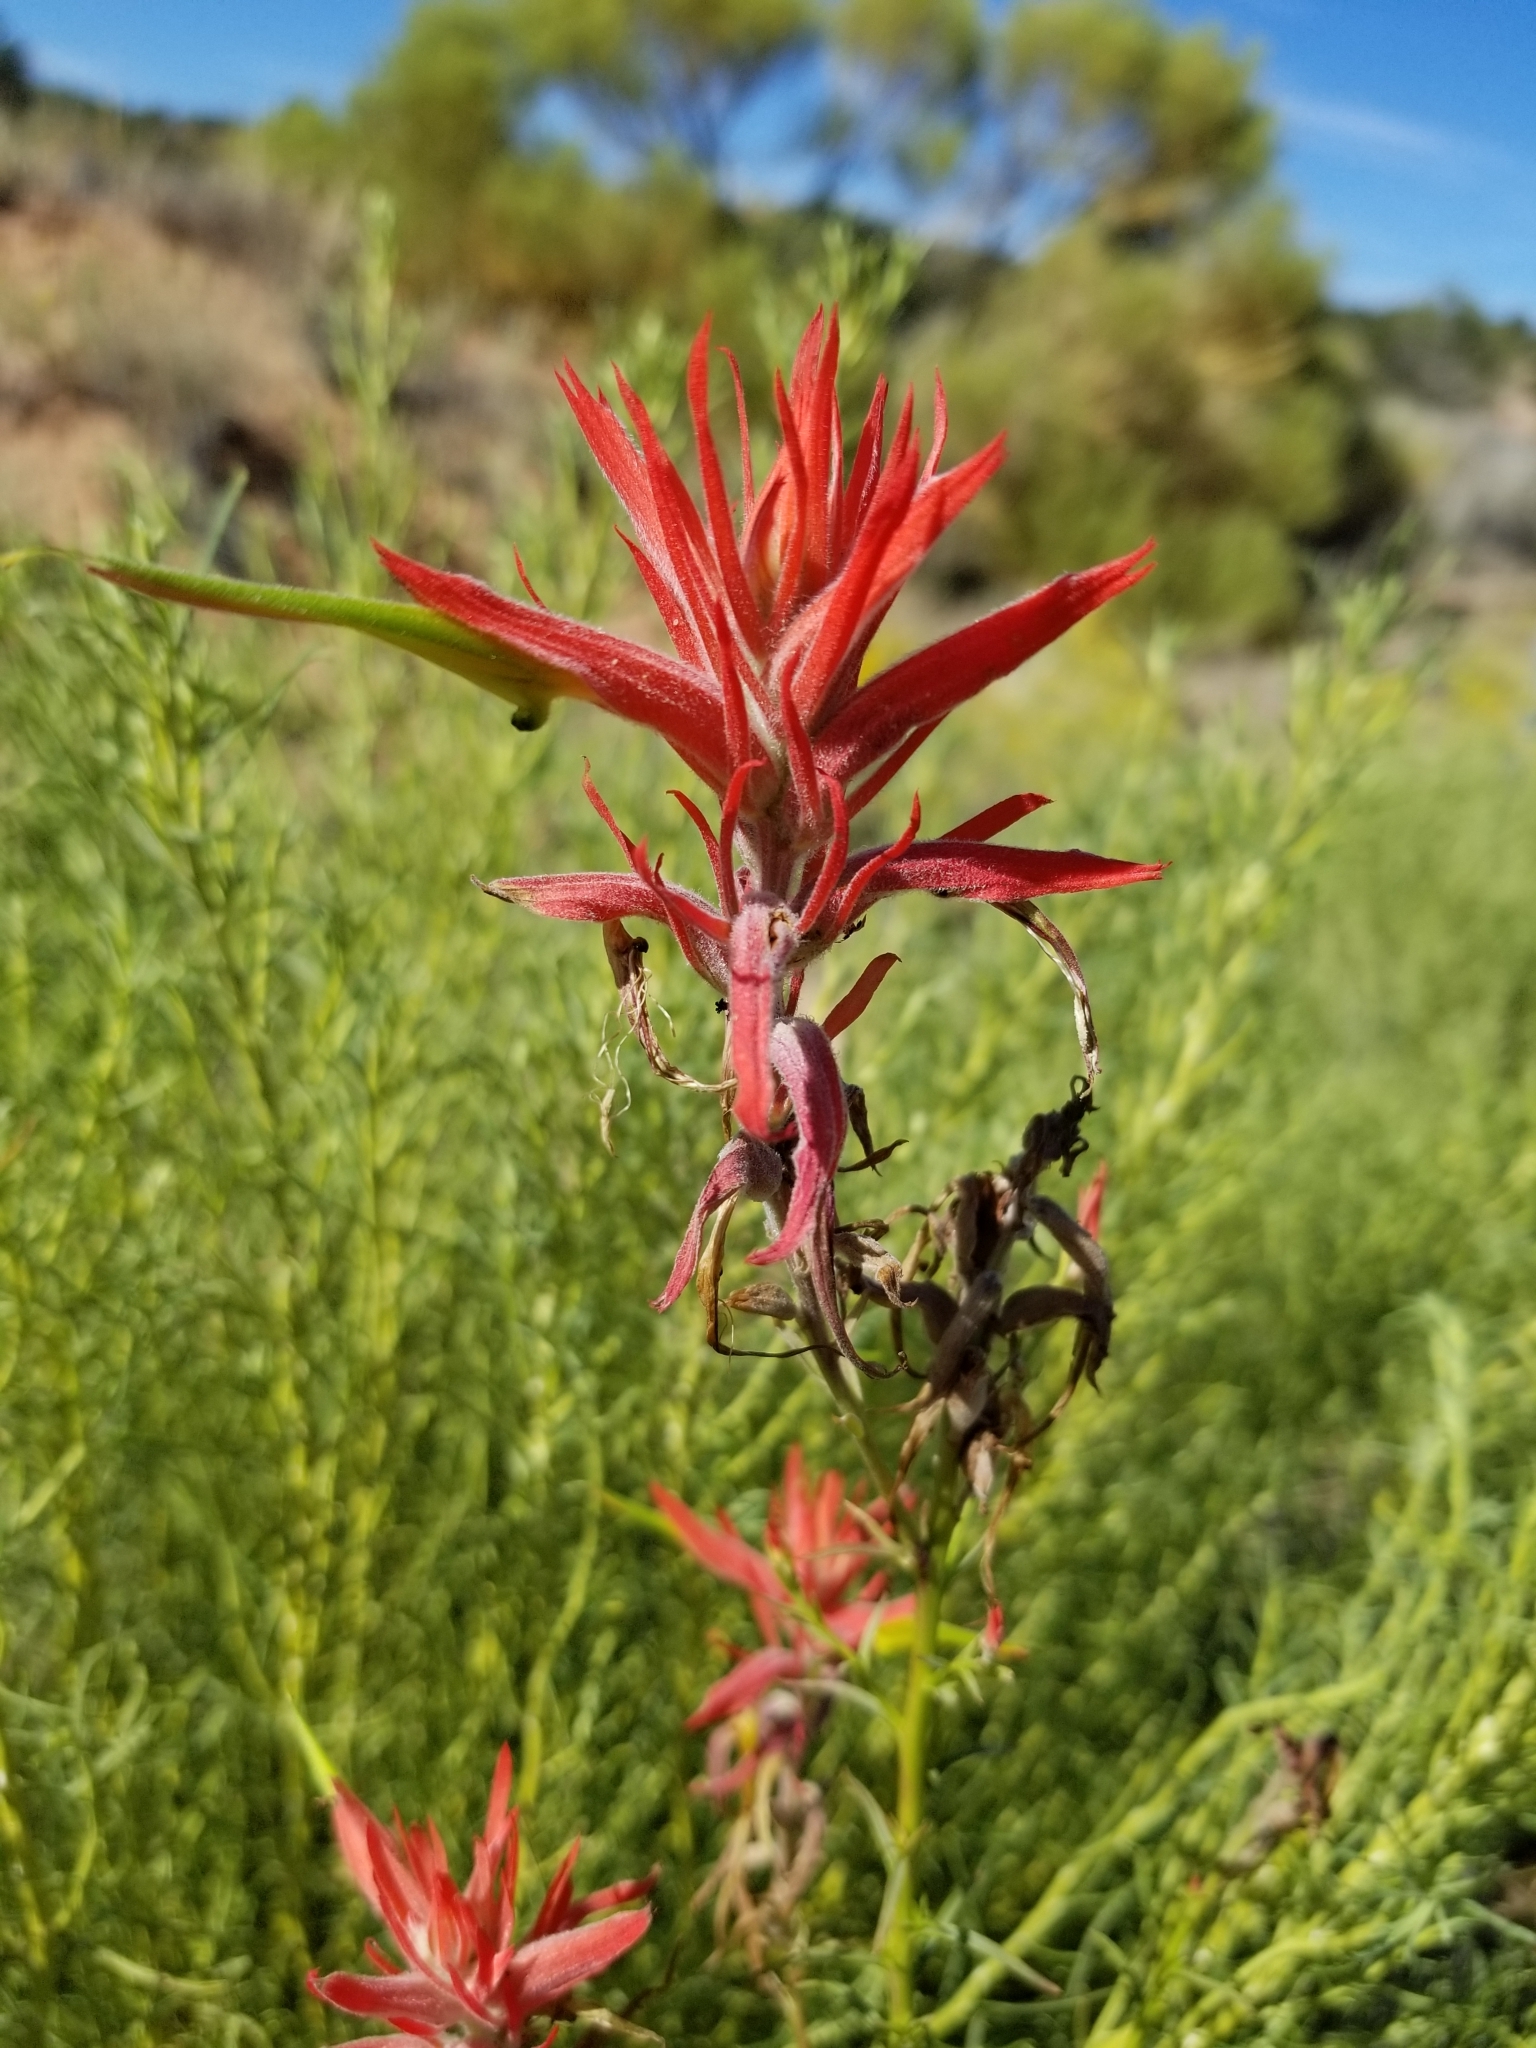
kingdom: Plantae
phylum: Tracheophyta
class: Magnoliopsida
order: Lamiales
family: Orobanchaceae
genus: Castilleja
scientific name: Castilleja linariifolia
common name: Wyoming paintbrush
